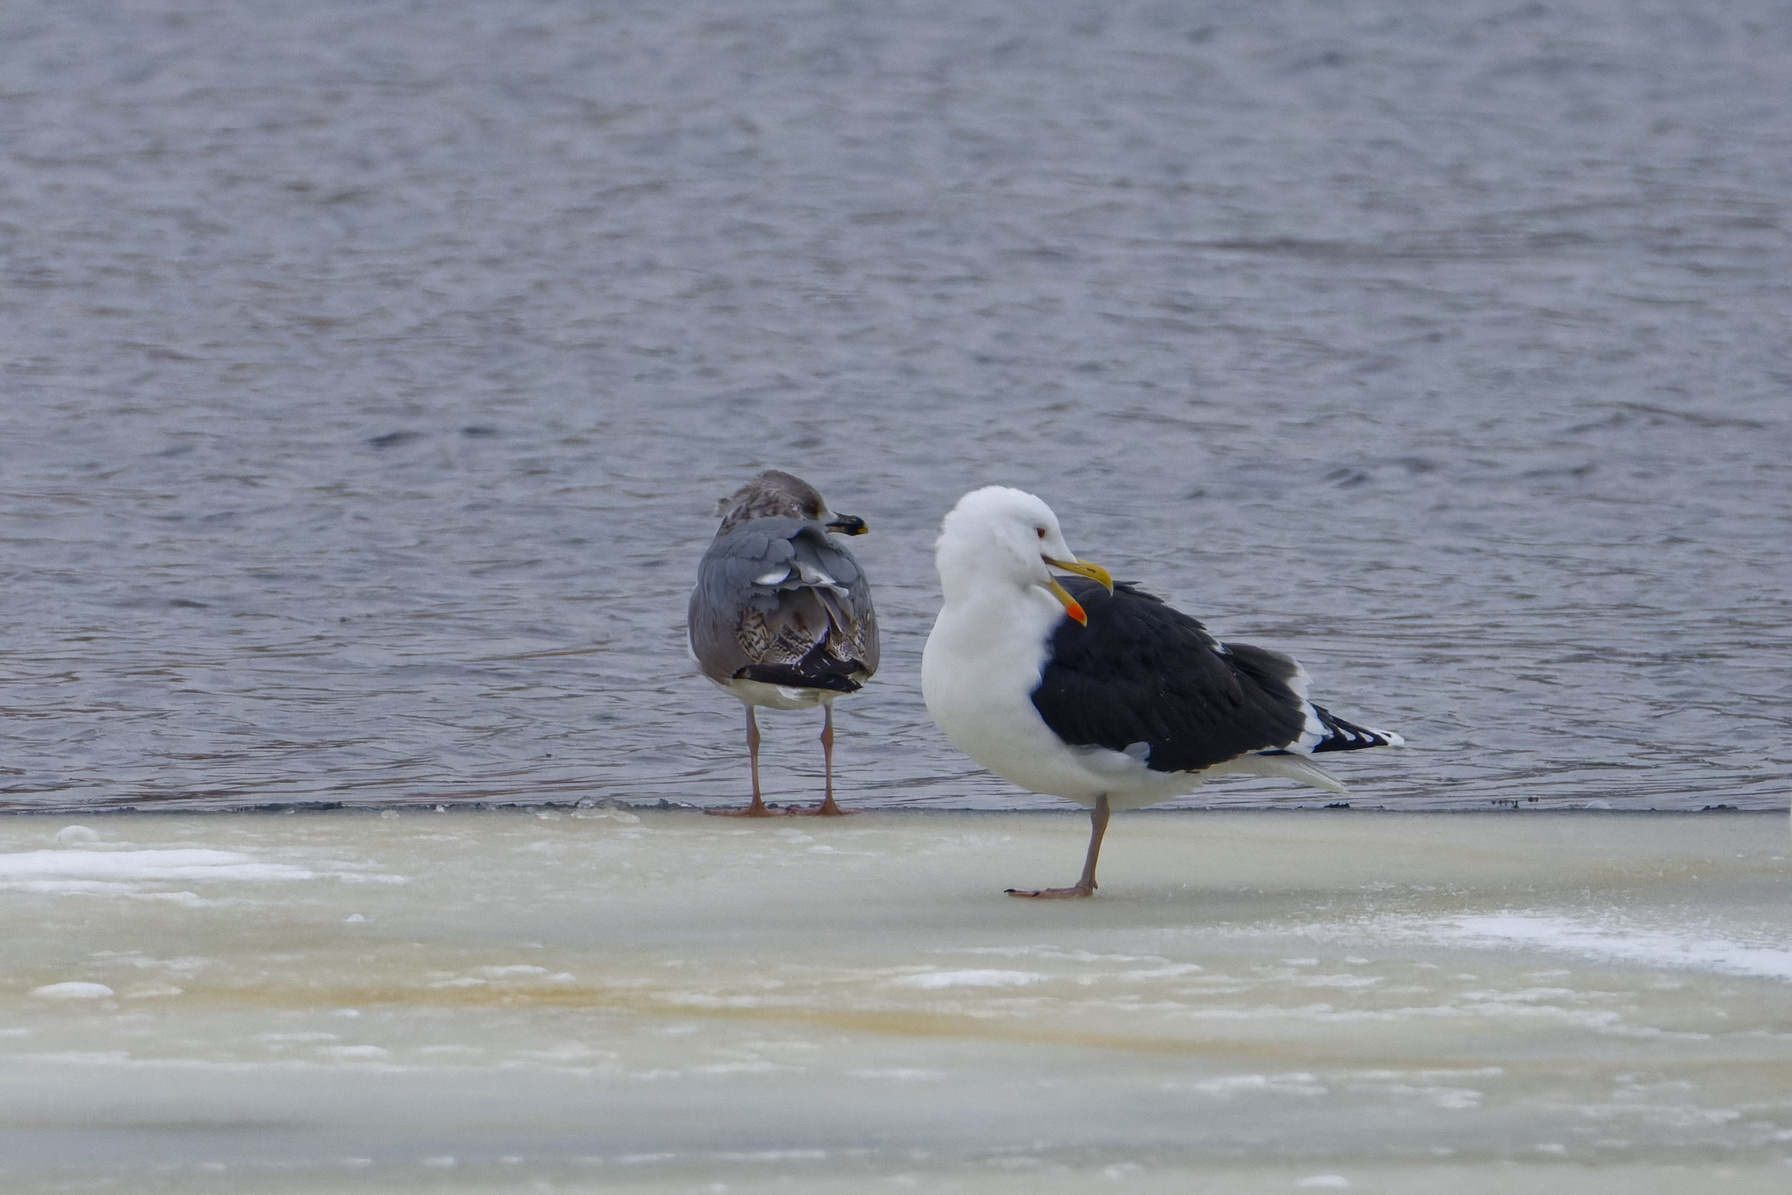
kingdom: Animalia
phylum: Chordata
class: Aves
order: Charadriiformes
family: Laridae
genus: Larus
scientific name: Larus marinus
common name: Great black-backed gull
